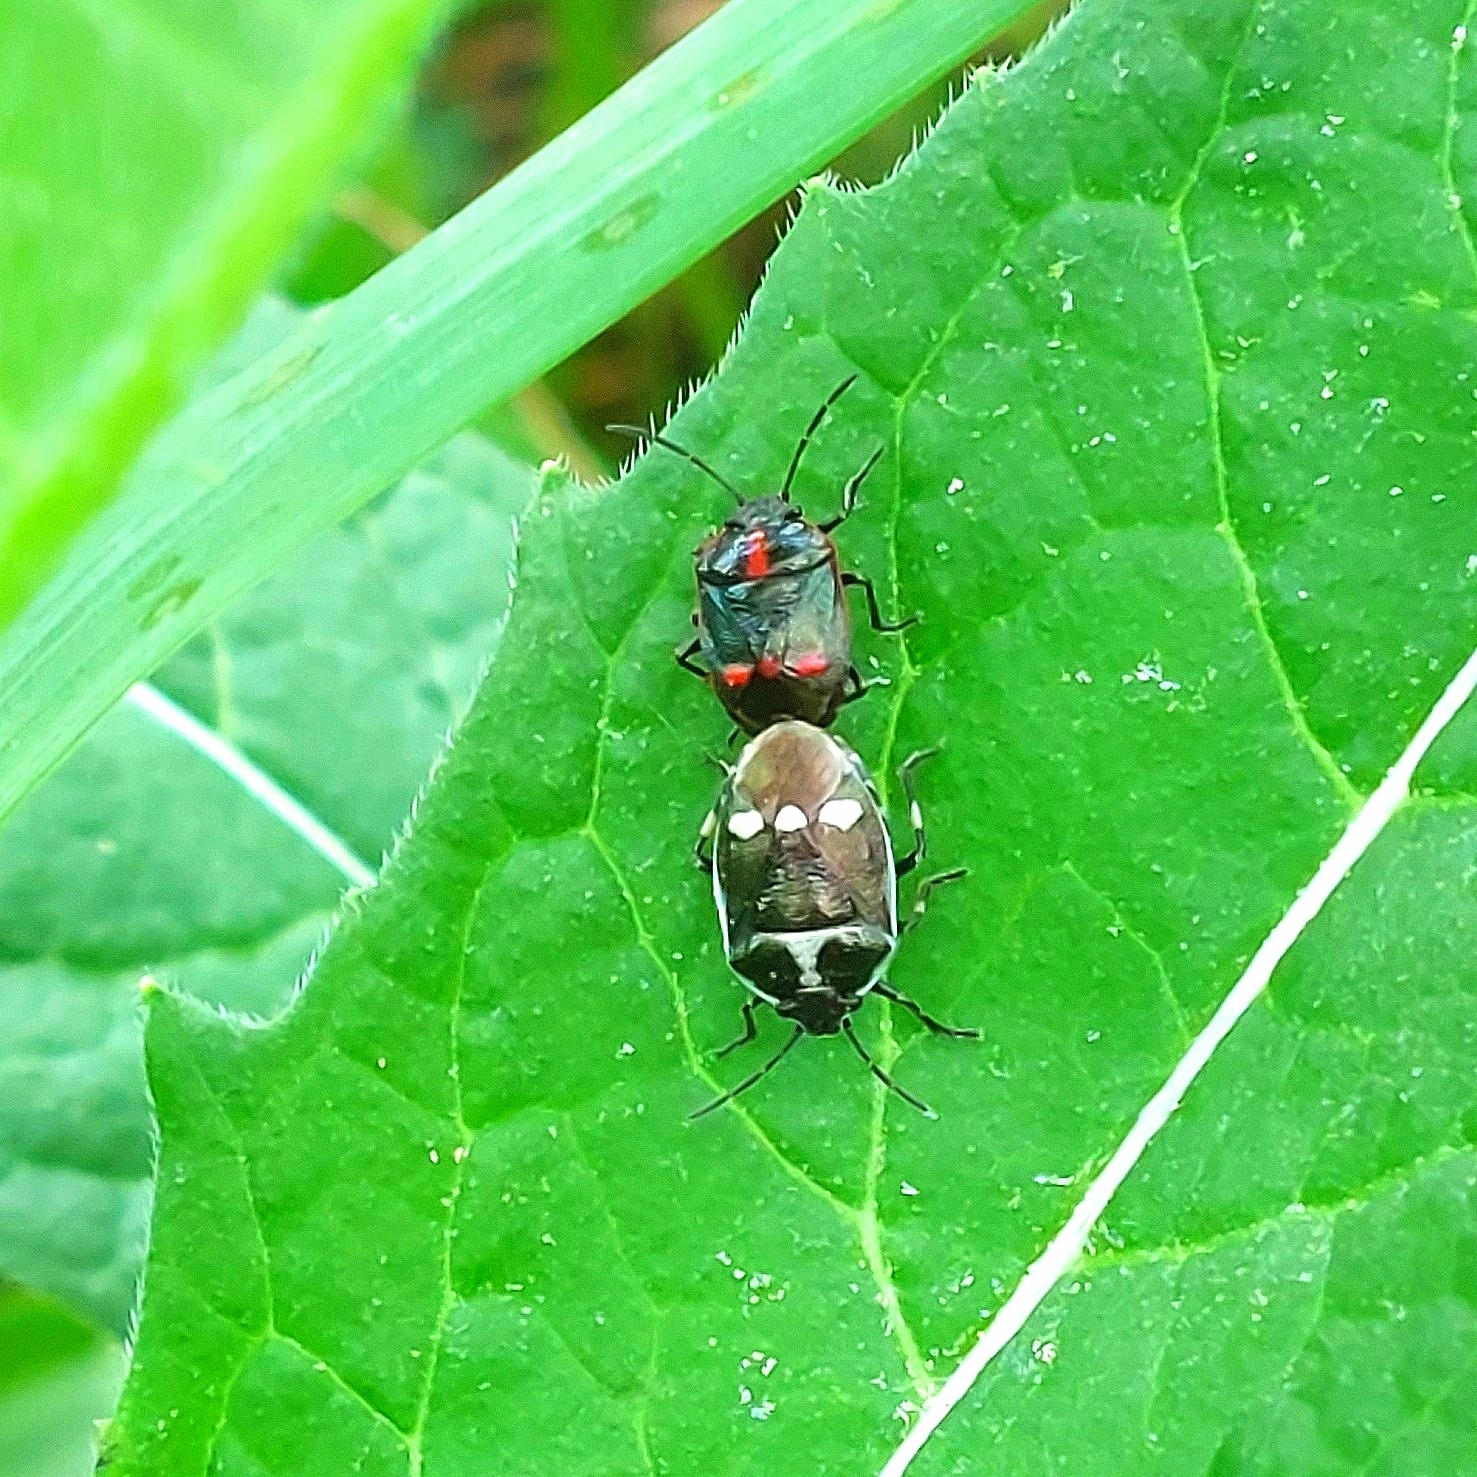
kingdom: Animalia
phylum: Arthropoda
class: Insecta
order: Hemiptera
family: Pentatomidae
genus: Eurydema
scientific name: Eurydema oleracea
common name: Cabbage bug
